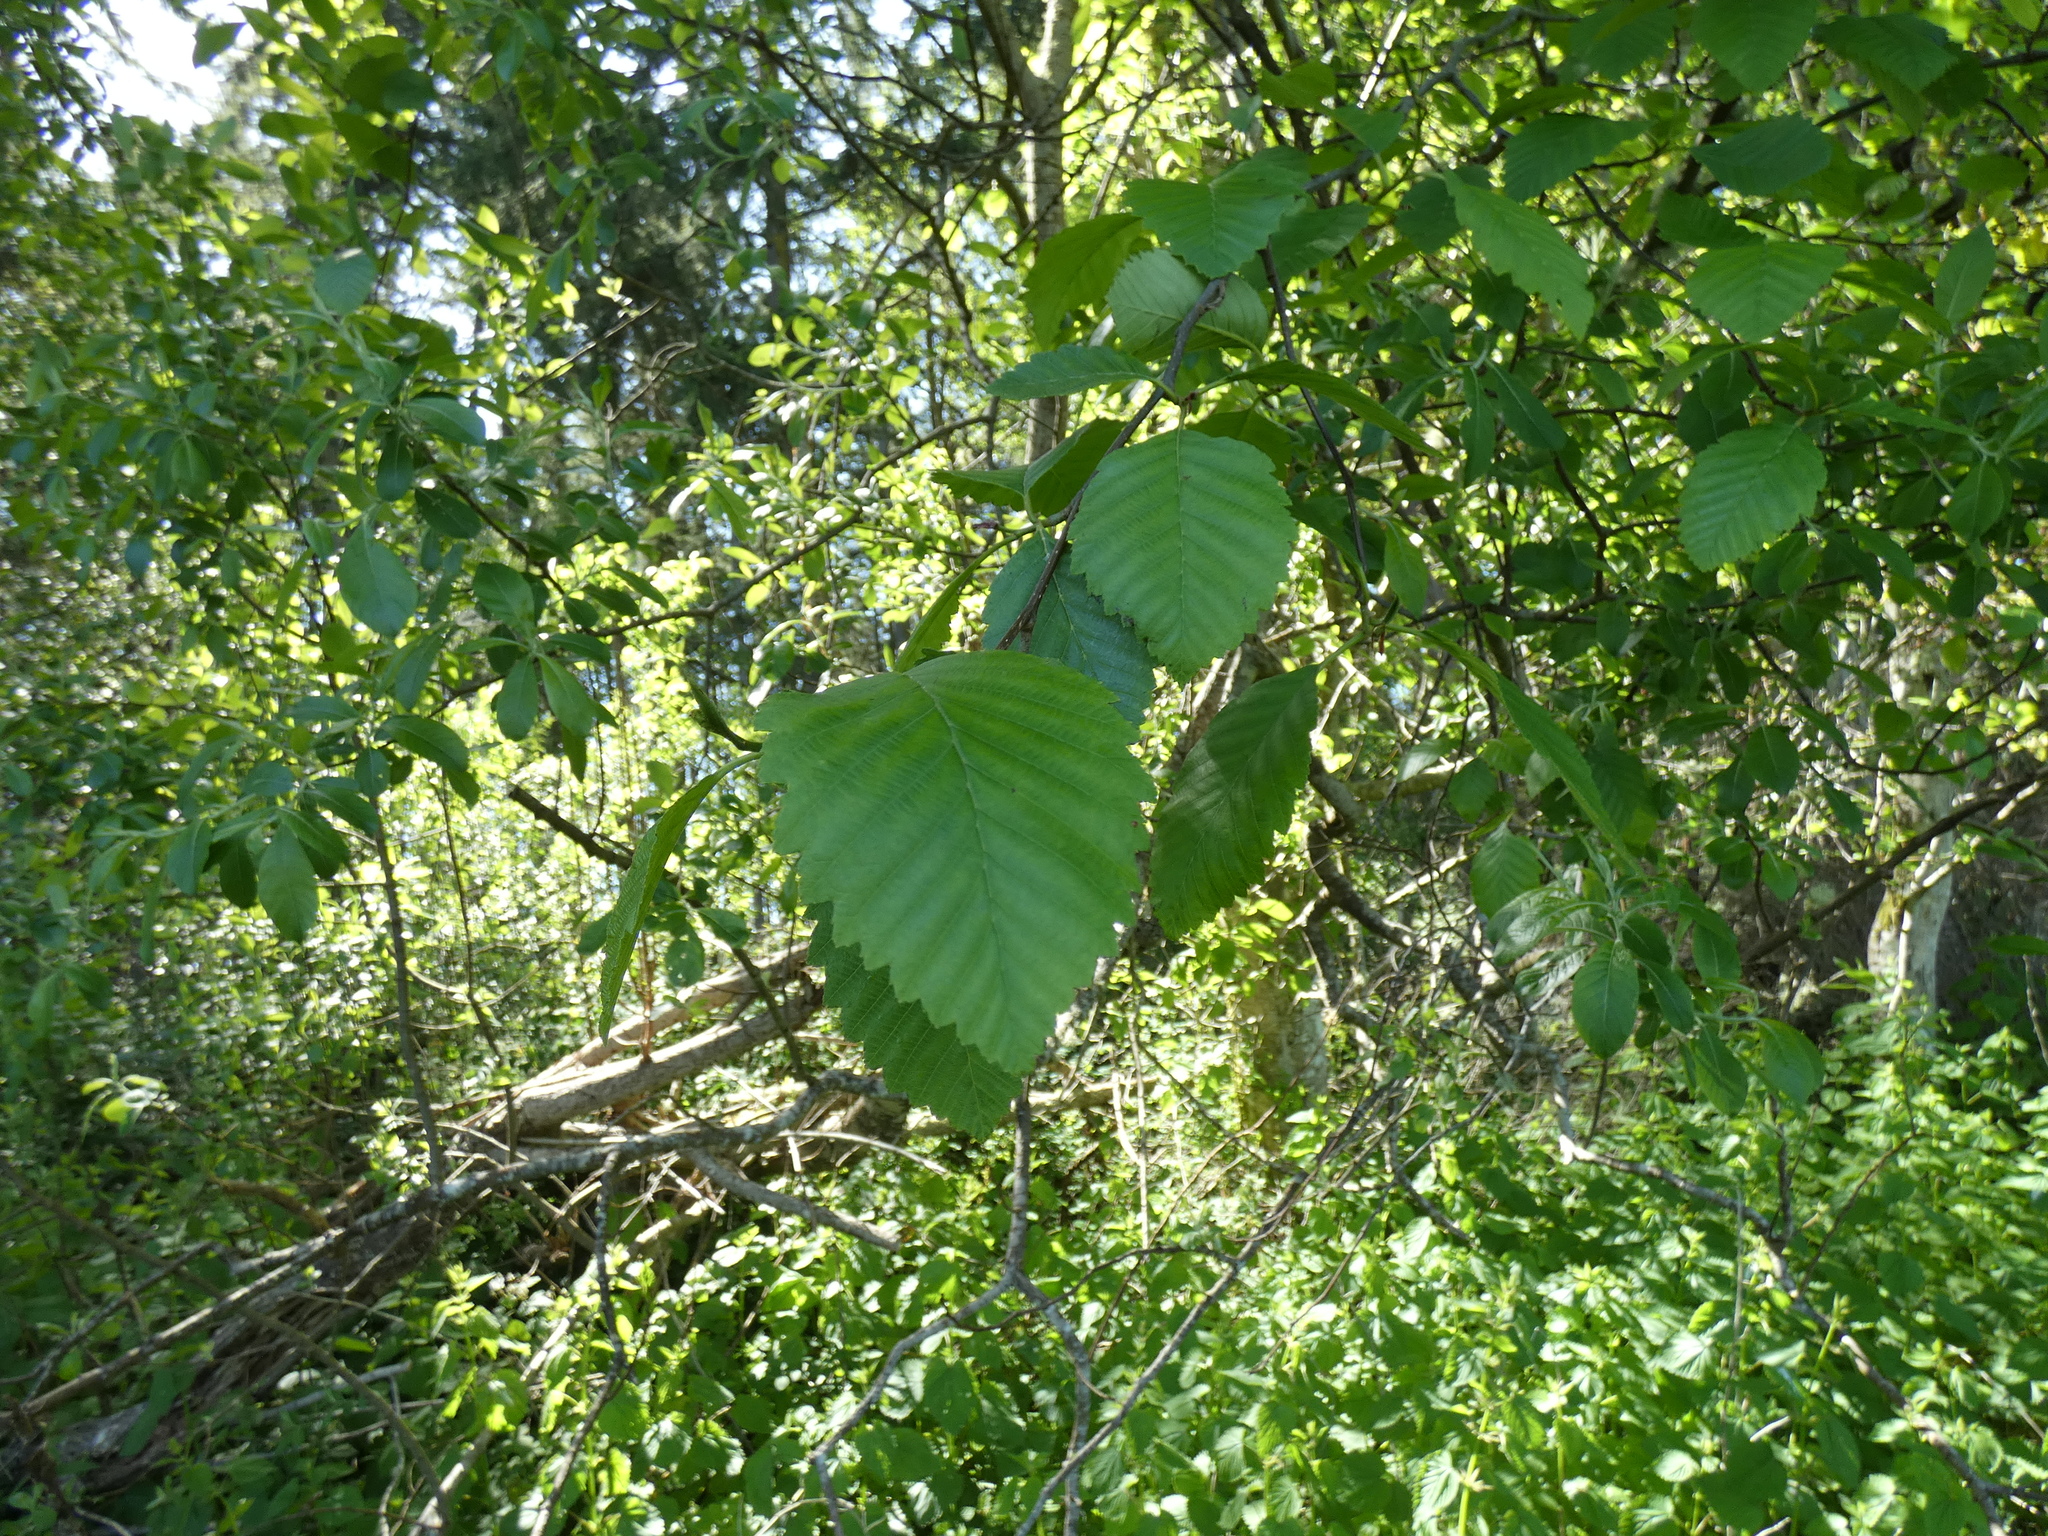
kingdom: Plantae
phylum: Tracheophyta
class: Magnoliopsida
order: Fagales
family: Betulaceae
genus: Alnus
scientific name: Alnus rubra
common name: Red alder
